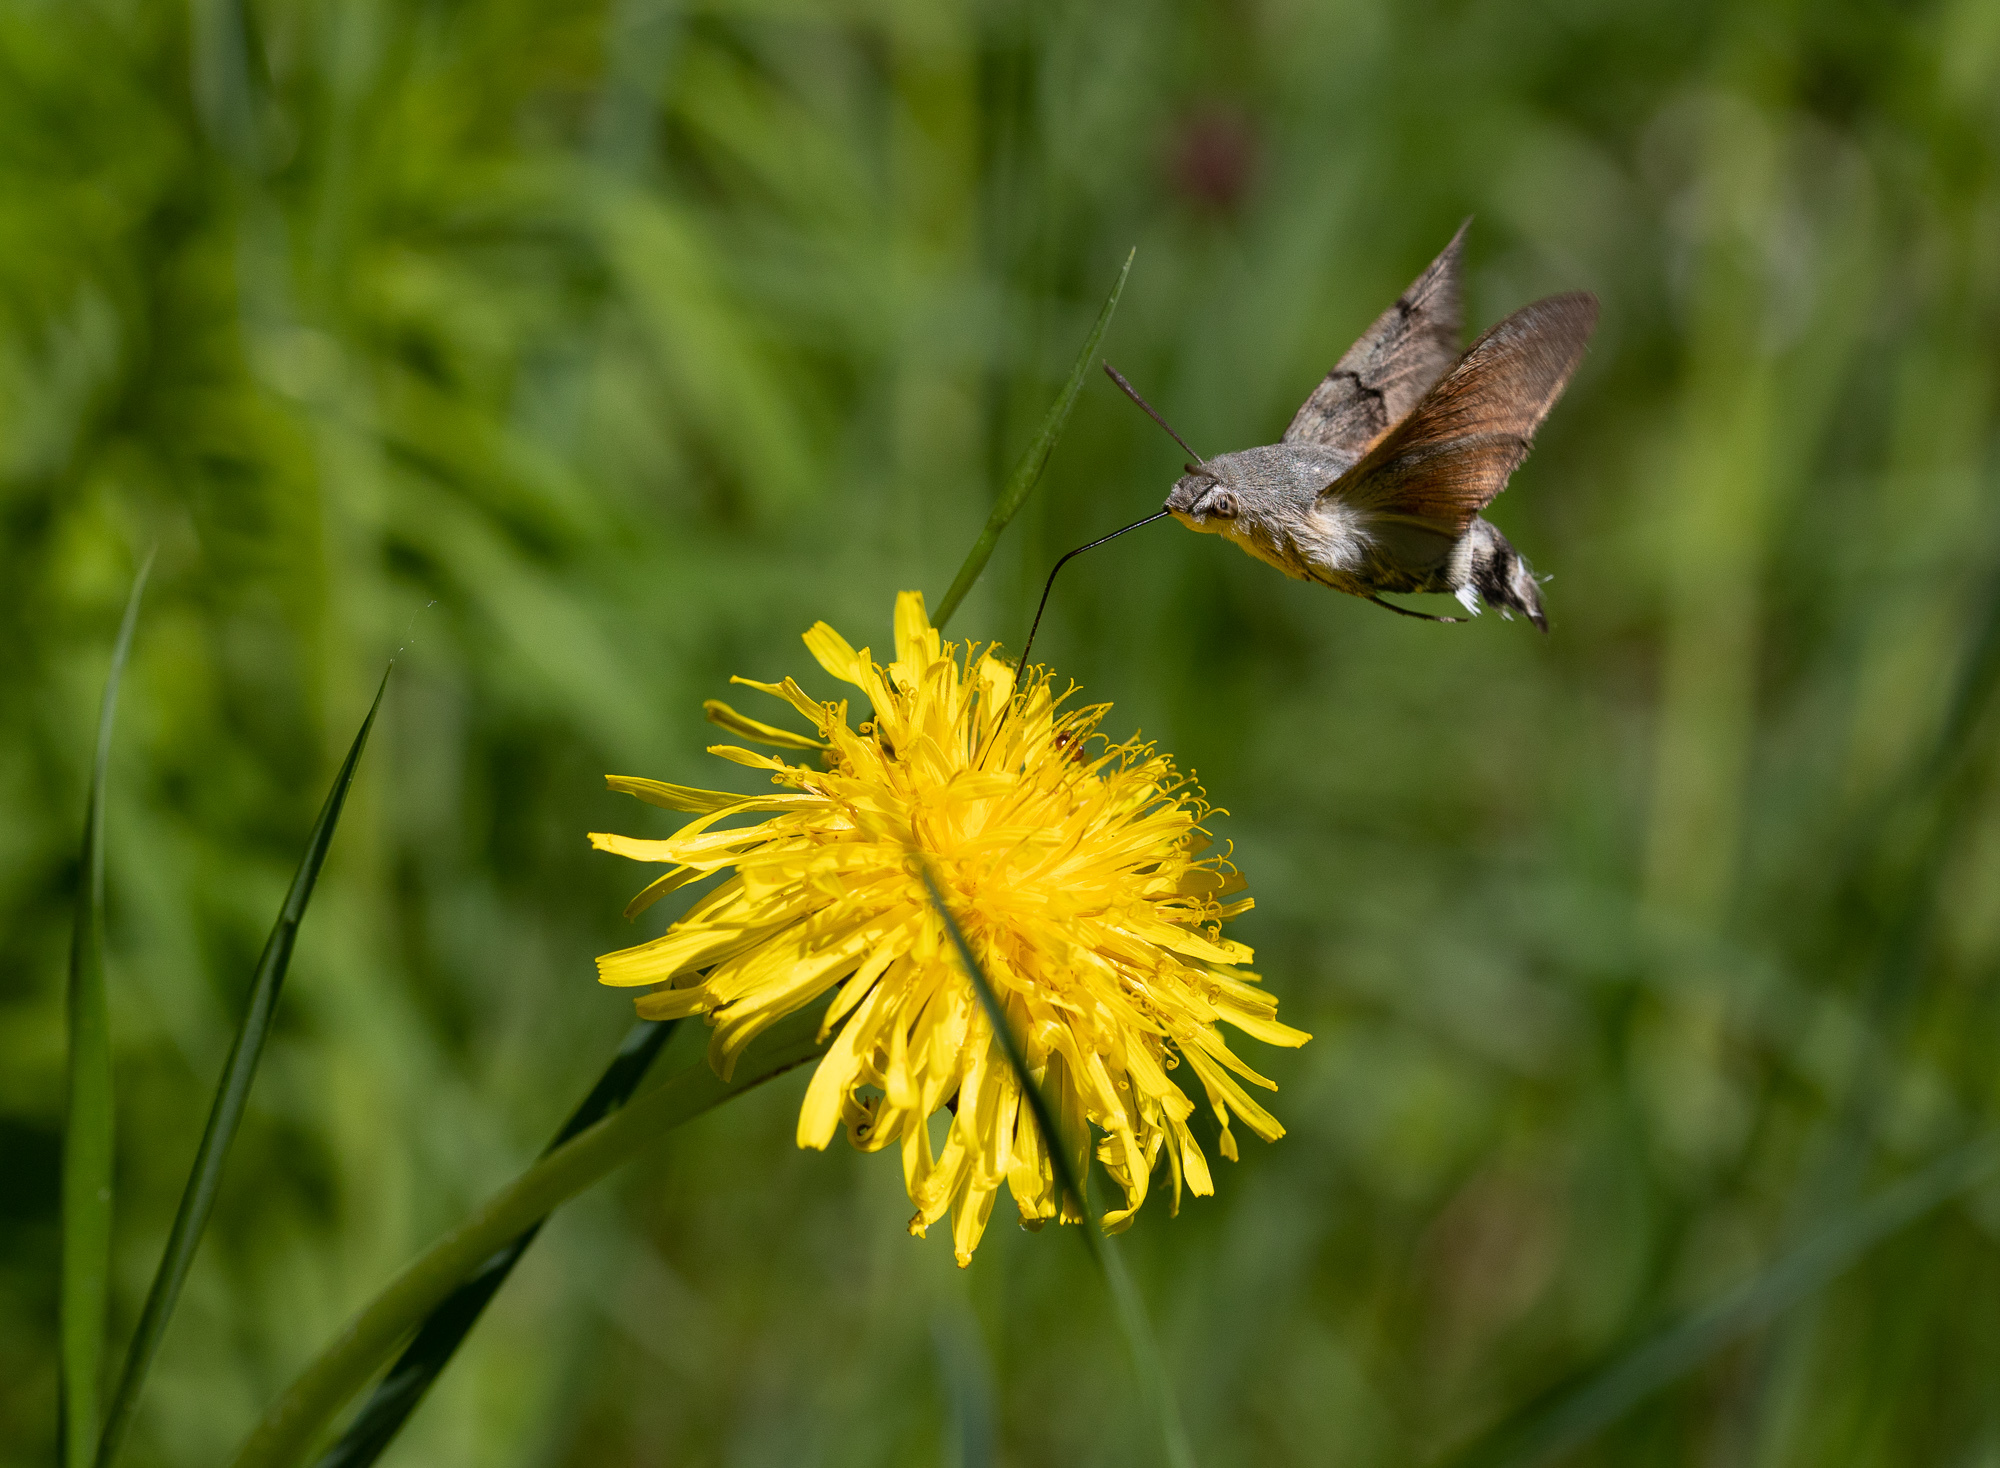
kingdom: Animalia
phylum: Arthropoda
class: Insecta
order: Lepidoptera
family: Sphingidae
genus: Macroglossum
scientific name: Macroglossum stellatarum
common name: Humming-bird hawk-moth
